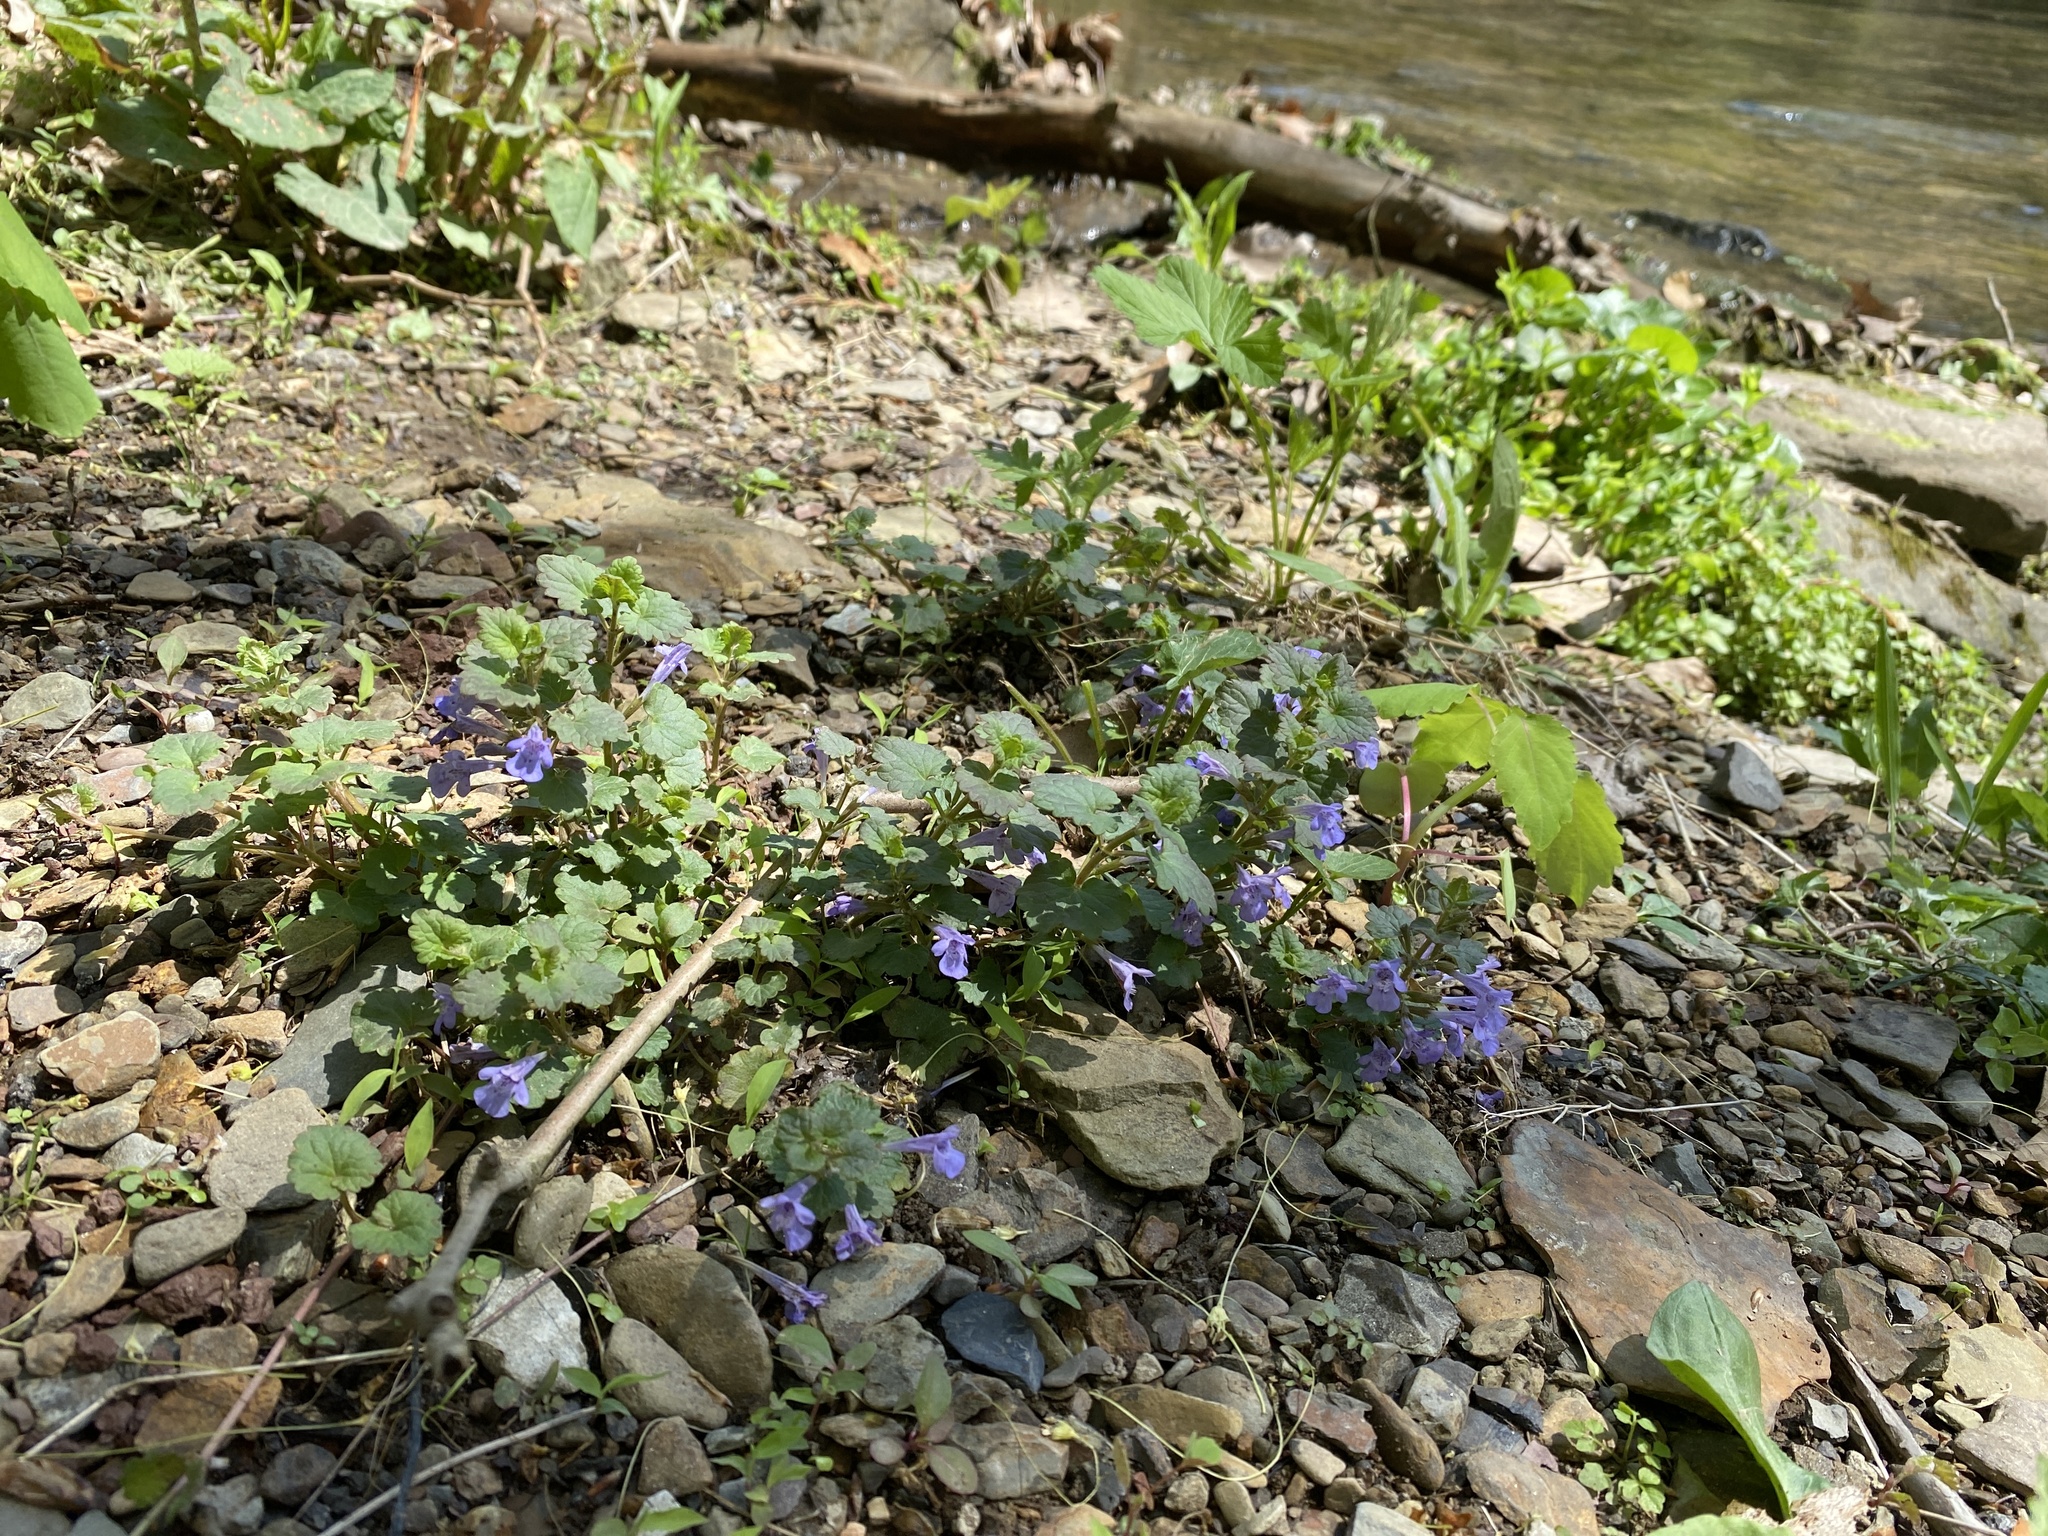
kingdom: Plantae
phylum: Tracheophyta
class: Magnoliopsida
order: Lamiales
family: Lamiaceae
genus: Glechoma
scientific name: Glechoma hederacea
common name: Ground ivy
